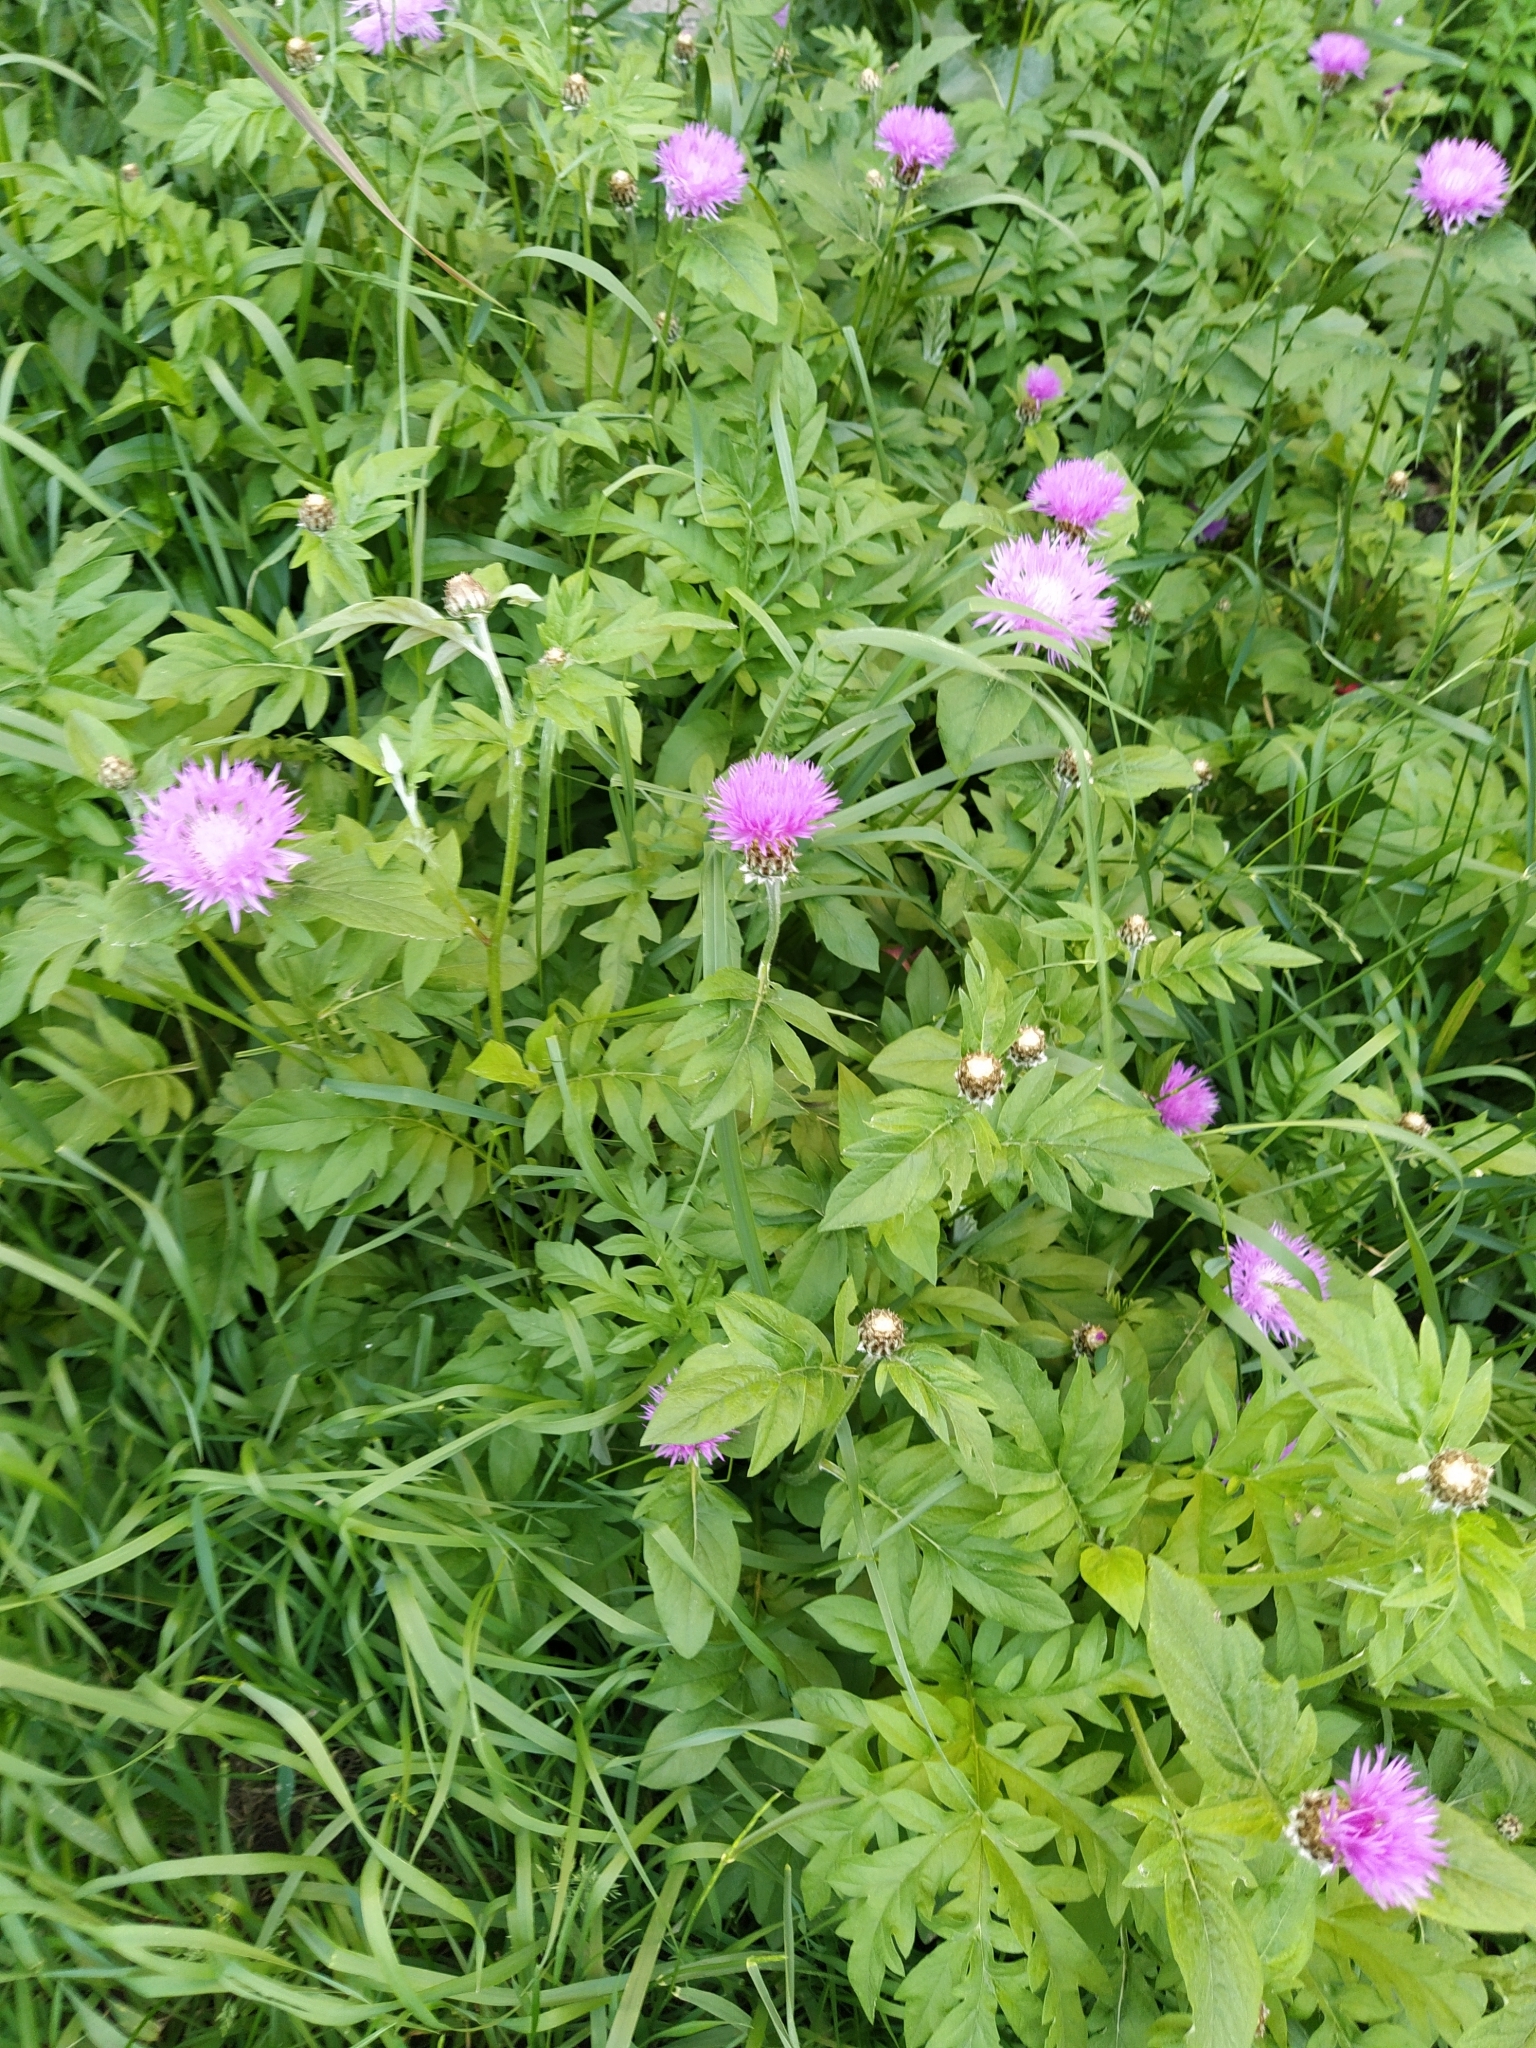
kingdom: Plantae
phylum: Tracheophyta
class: Magnoliopsida
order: Asterales
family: Asteraceae
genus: Psephellus
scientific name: Psephellus dealbatus
